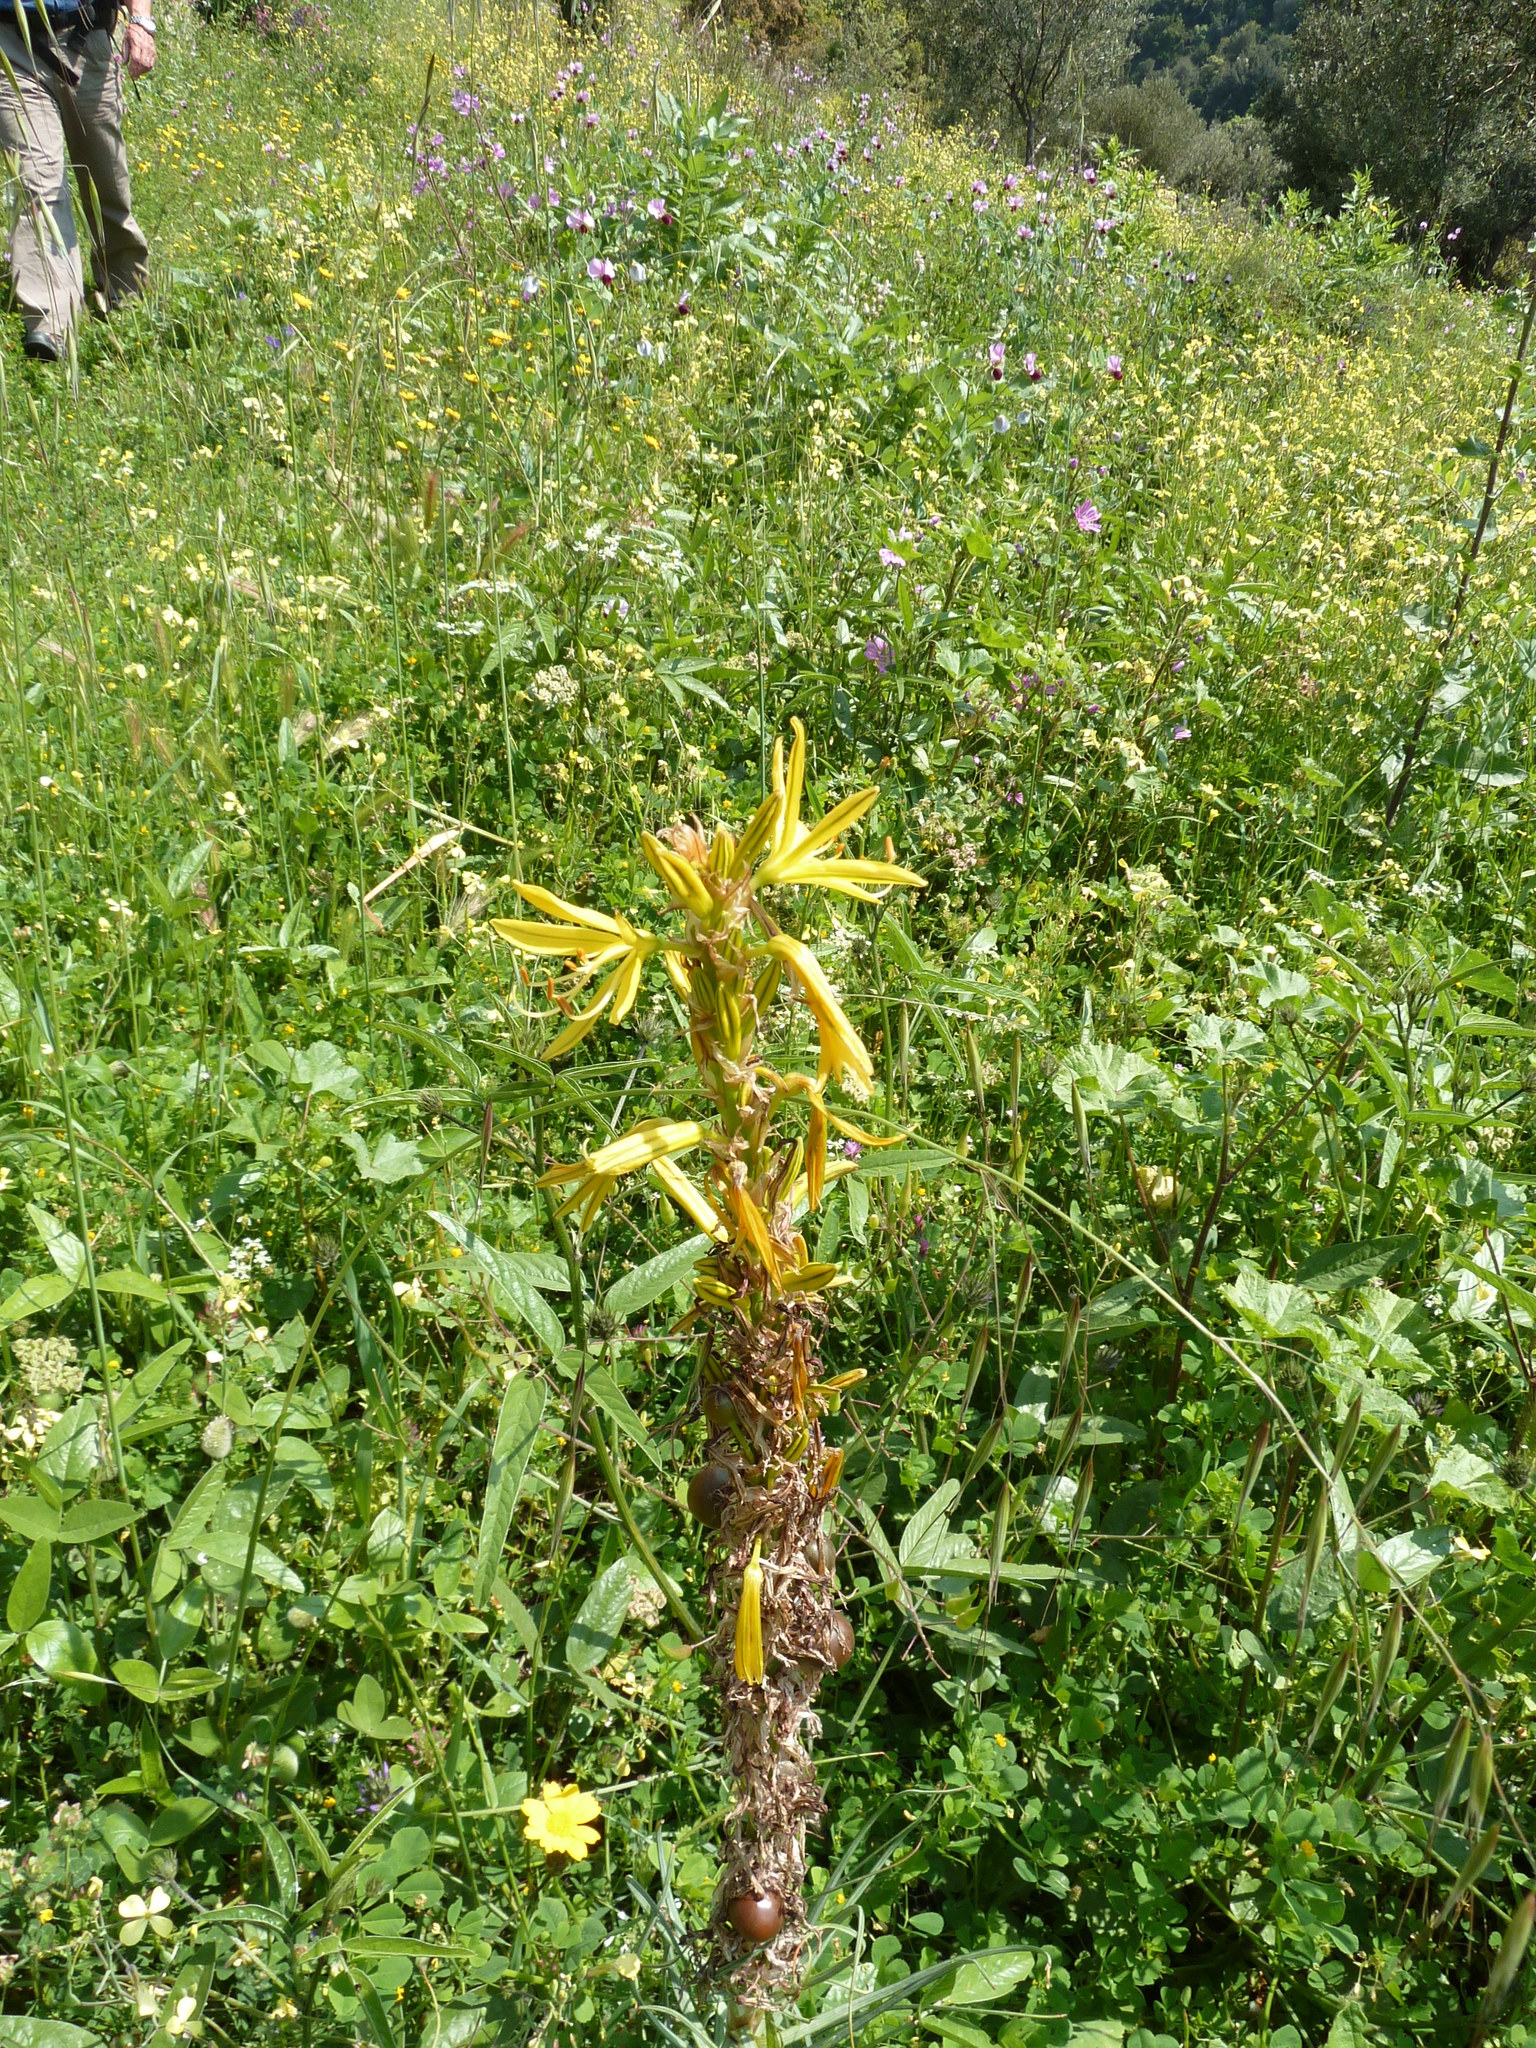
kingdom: Plantae
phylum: Tracheophyta
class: Liliopsida
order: Asparagales
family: Asphodelaceae
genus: Asphodeline
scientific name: Asphodeline lutea
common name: Yellow asphodel
